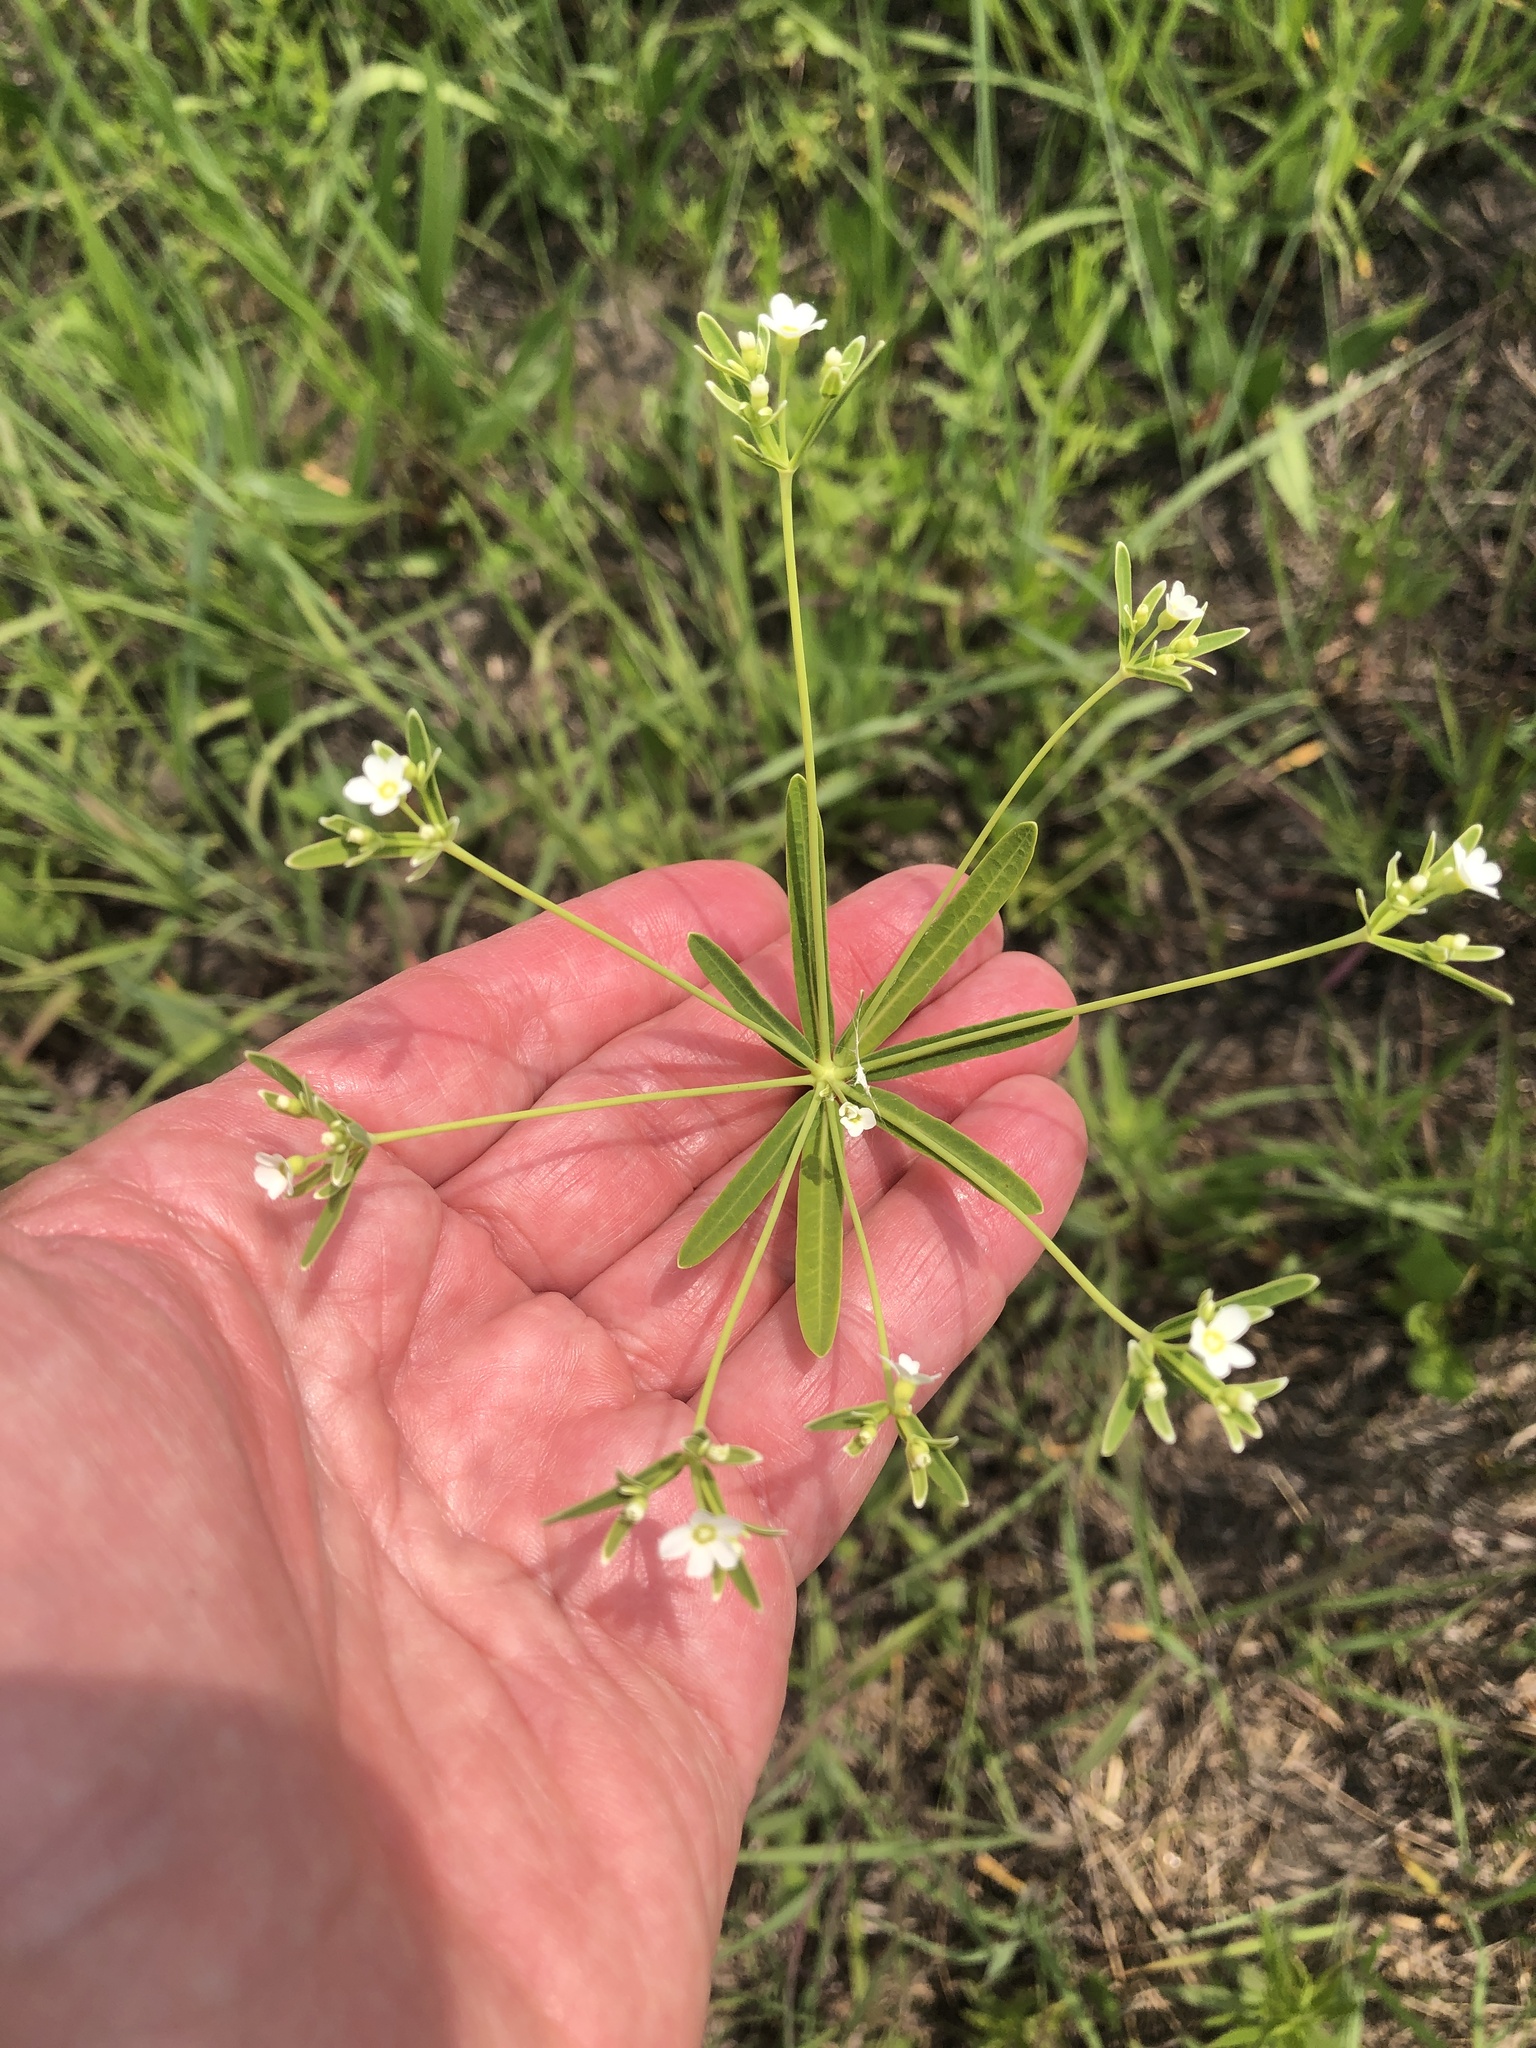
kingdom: Plantae
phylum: Tracheophyta
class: Magnoliopsida
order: Malpighiales
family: Euphorbiaceae
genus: Euphorbia
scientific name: Euphorbia corollata
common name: Flowering spurge
